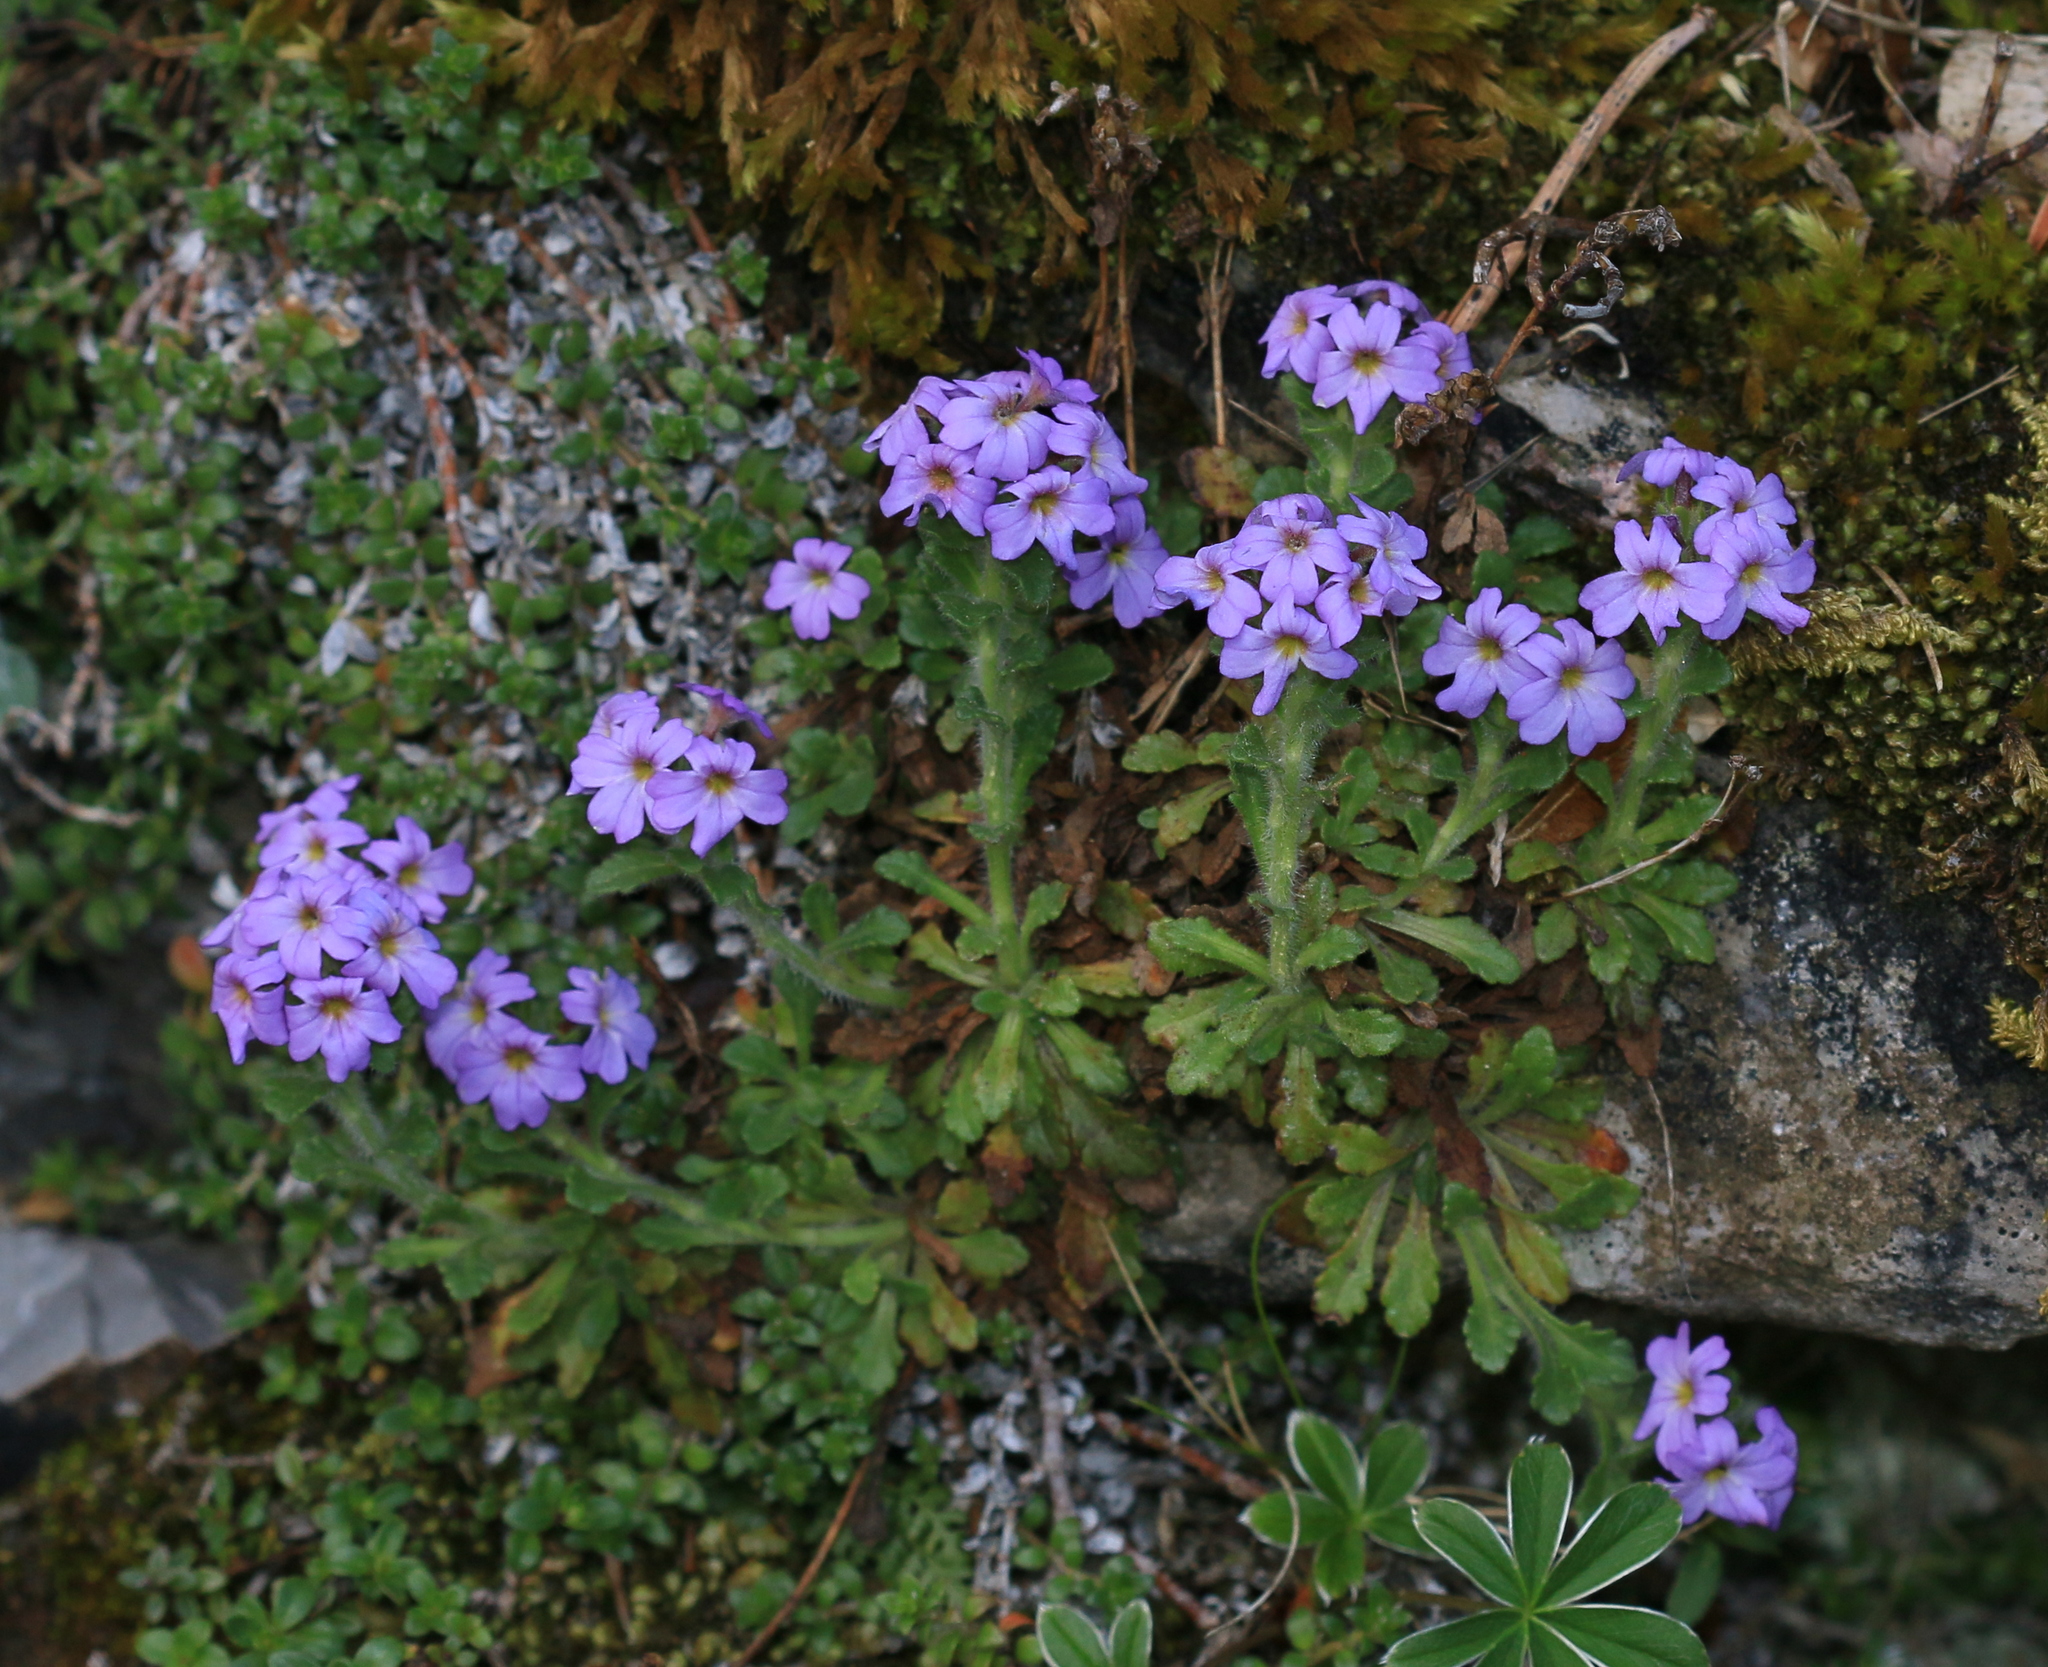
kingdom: Plantae
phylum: Tracheophyta
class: Magnoliopsida
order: Lamiales
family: Plantaginaceae
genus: Erinus
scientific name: Erinus alpinus
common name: Fairy foxglove
